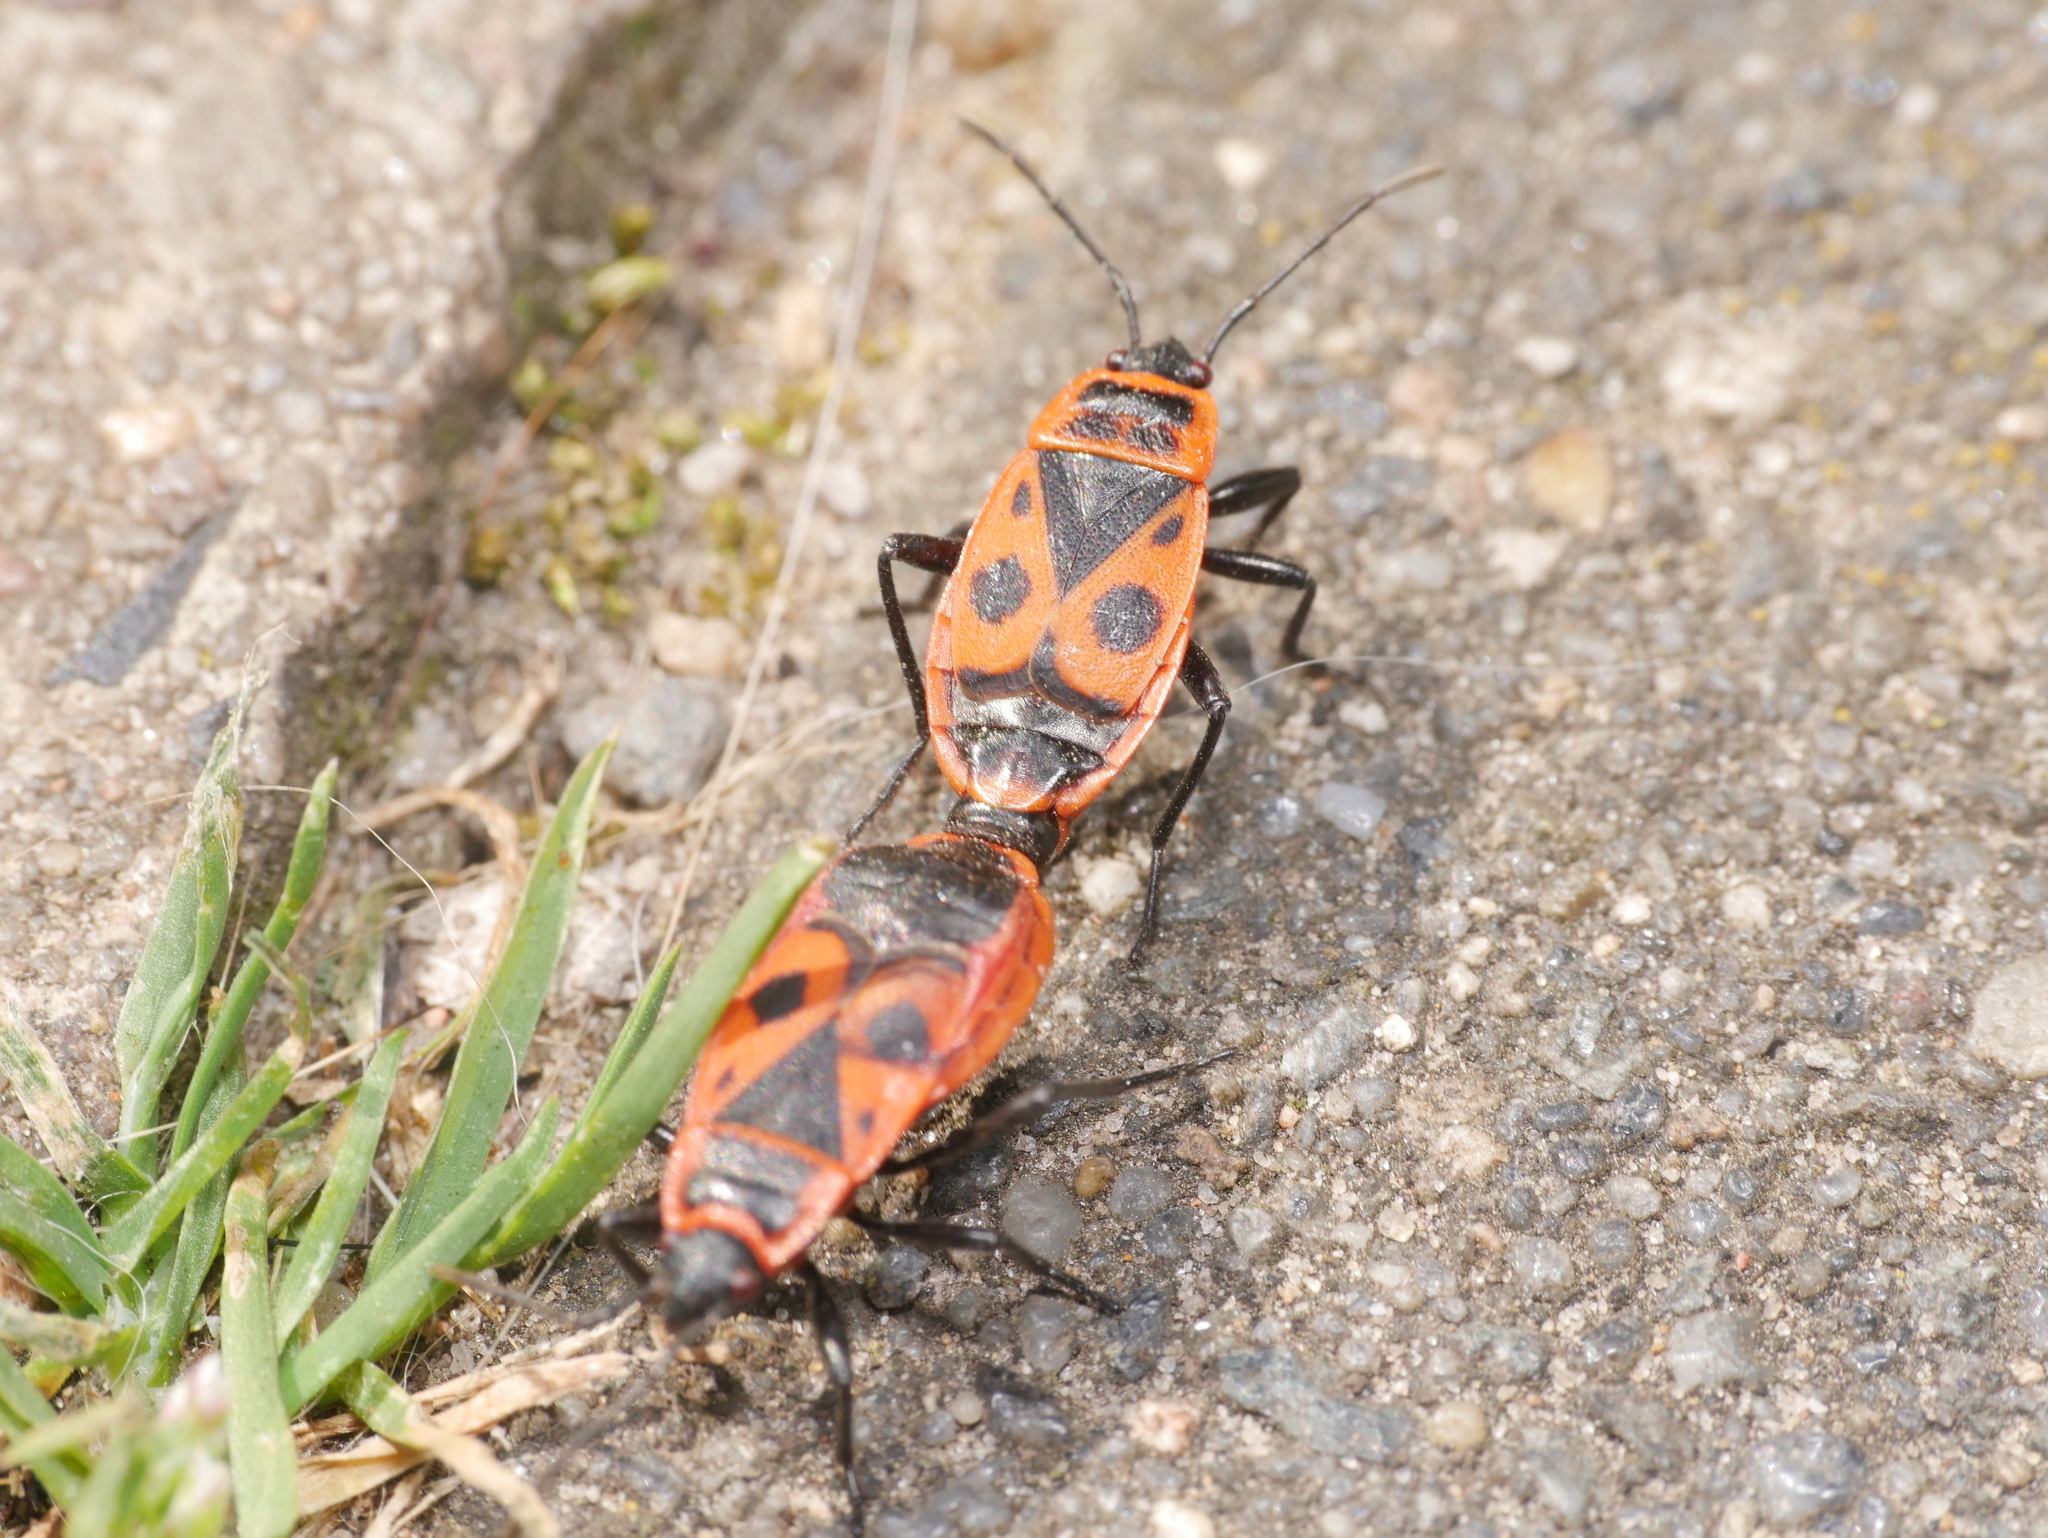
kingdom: Animalia
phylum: Arthropoda
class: Insecta
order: Hemiptera
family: Pyrrhocoridae
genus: Pyrrhocoris
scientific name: Pyrrhocoris apterus
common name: Firebug
